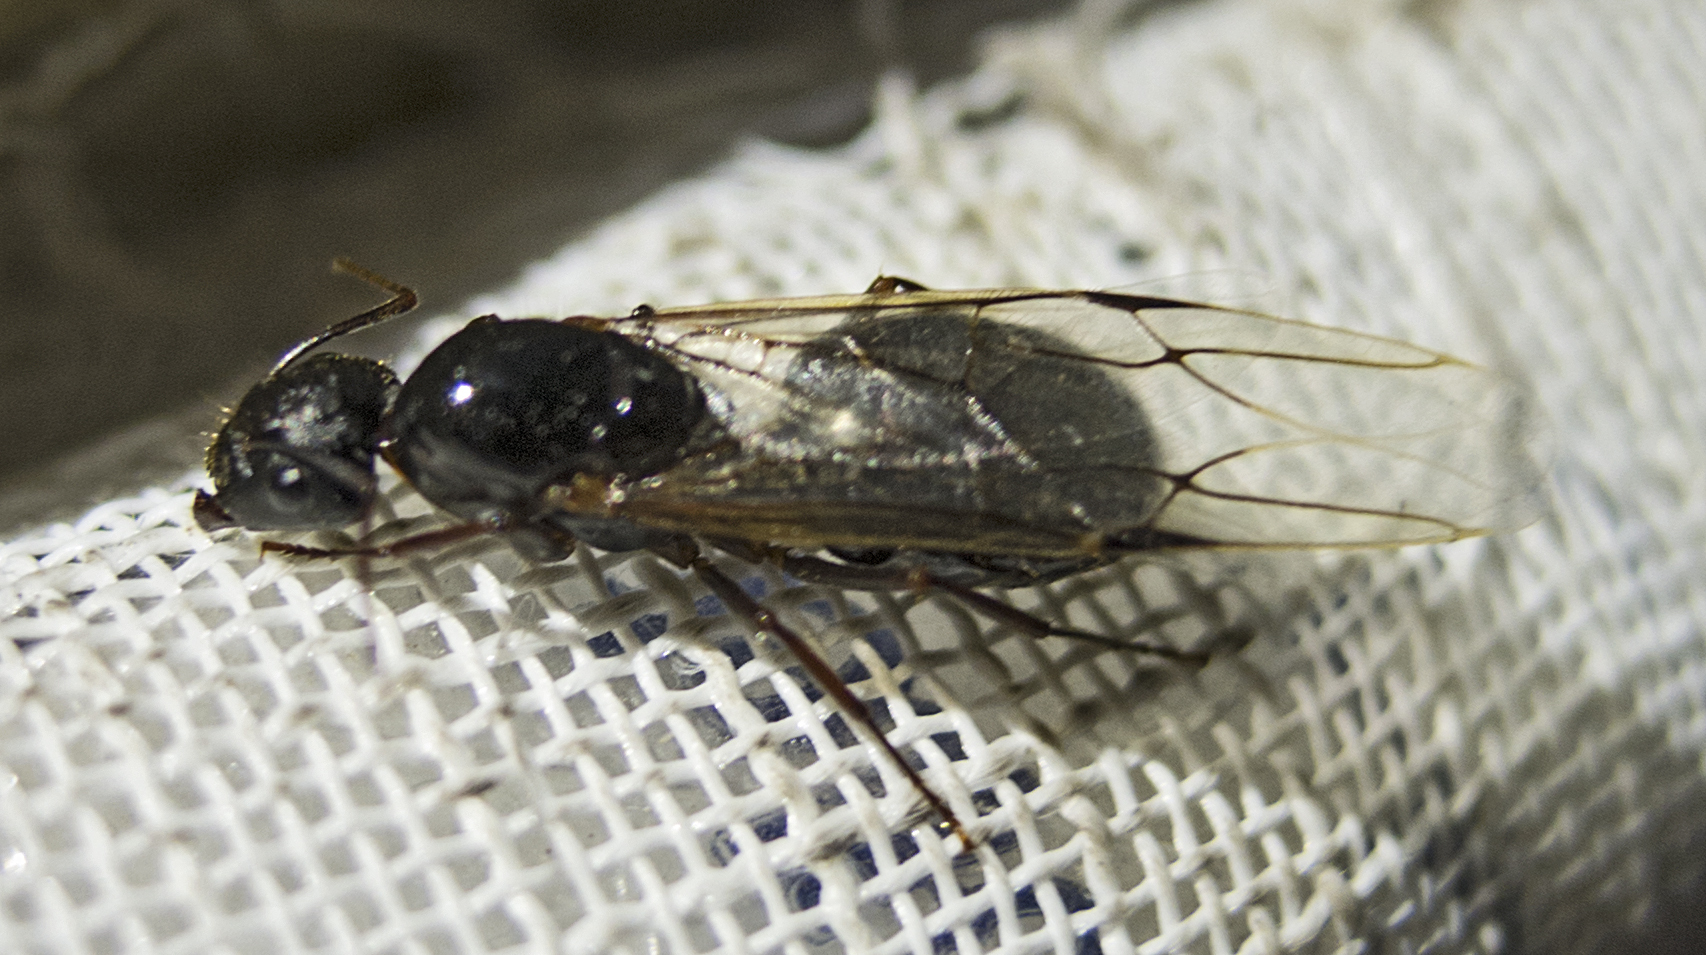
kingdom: Animalia
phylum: Arthropoda
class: Insecta
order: Hymenoptera
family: Formicidae
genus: Camponotus
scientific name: Camponotus aethiops
